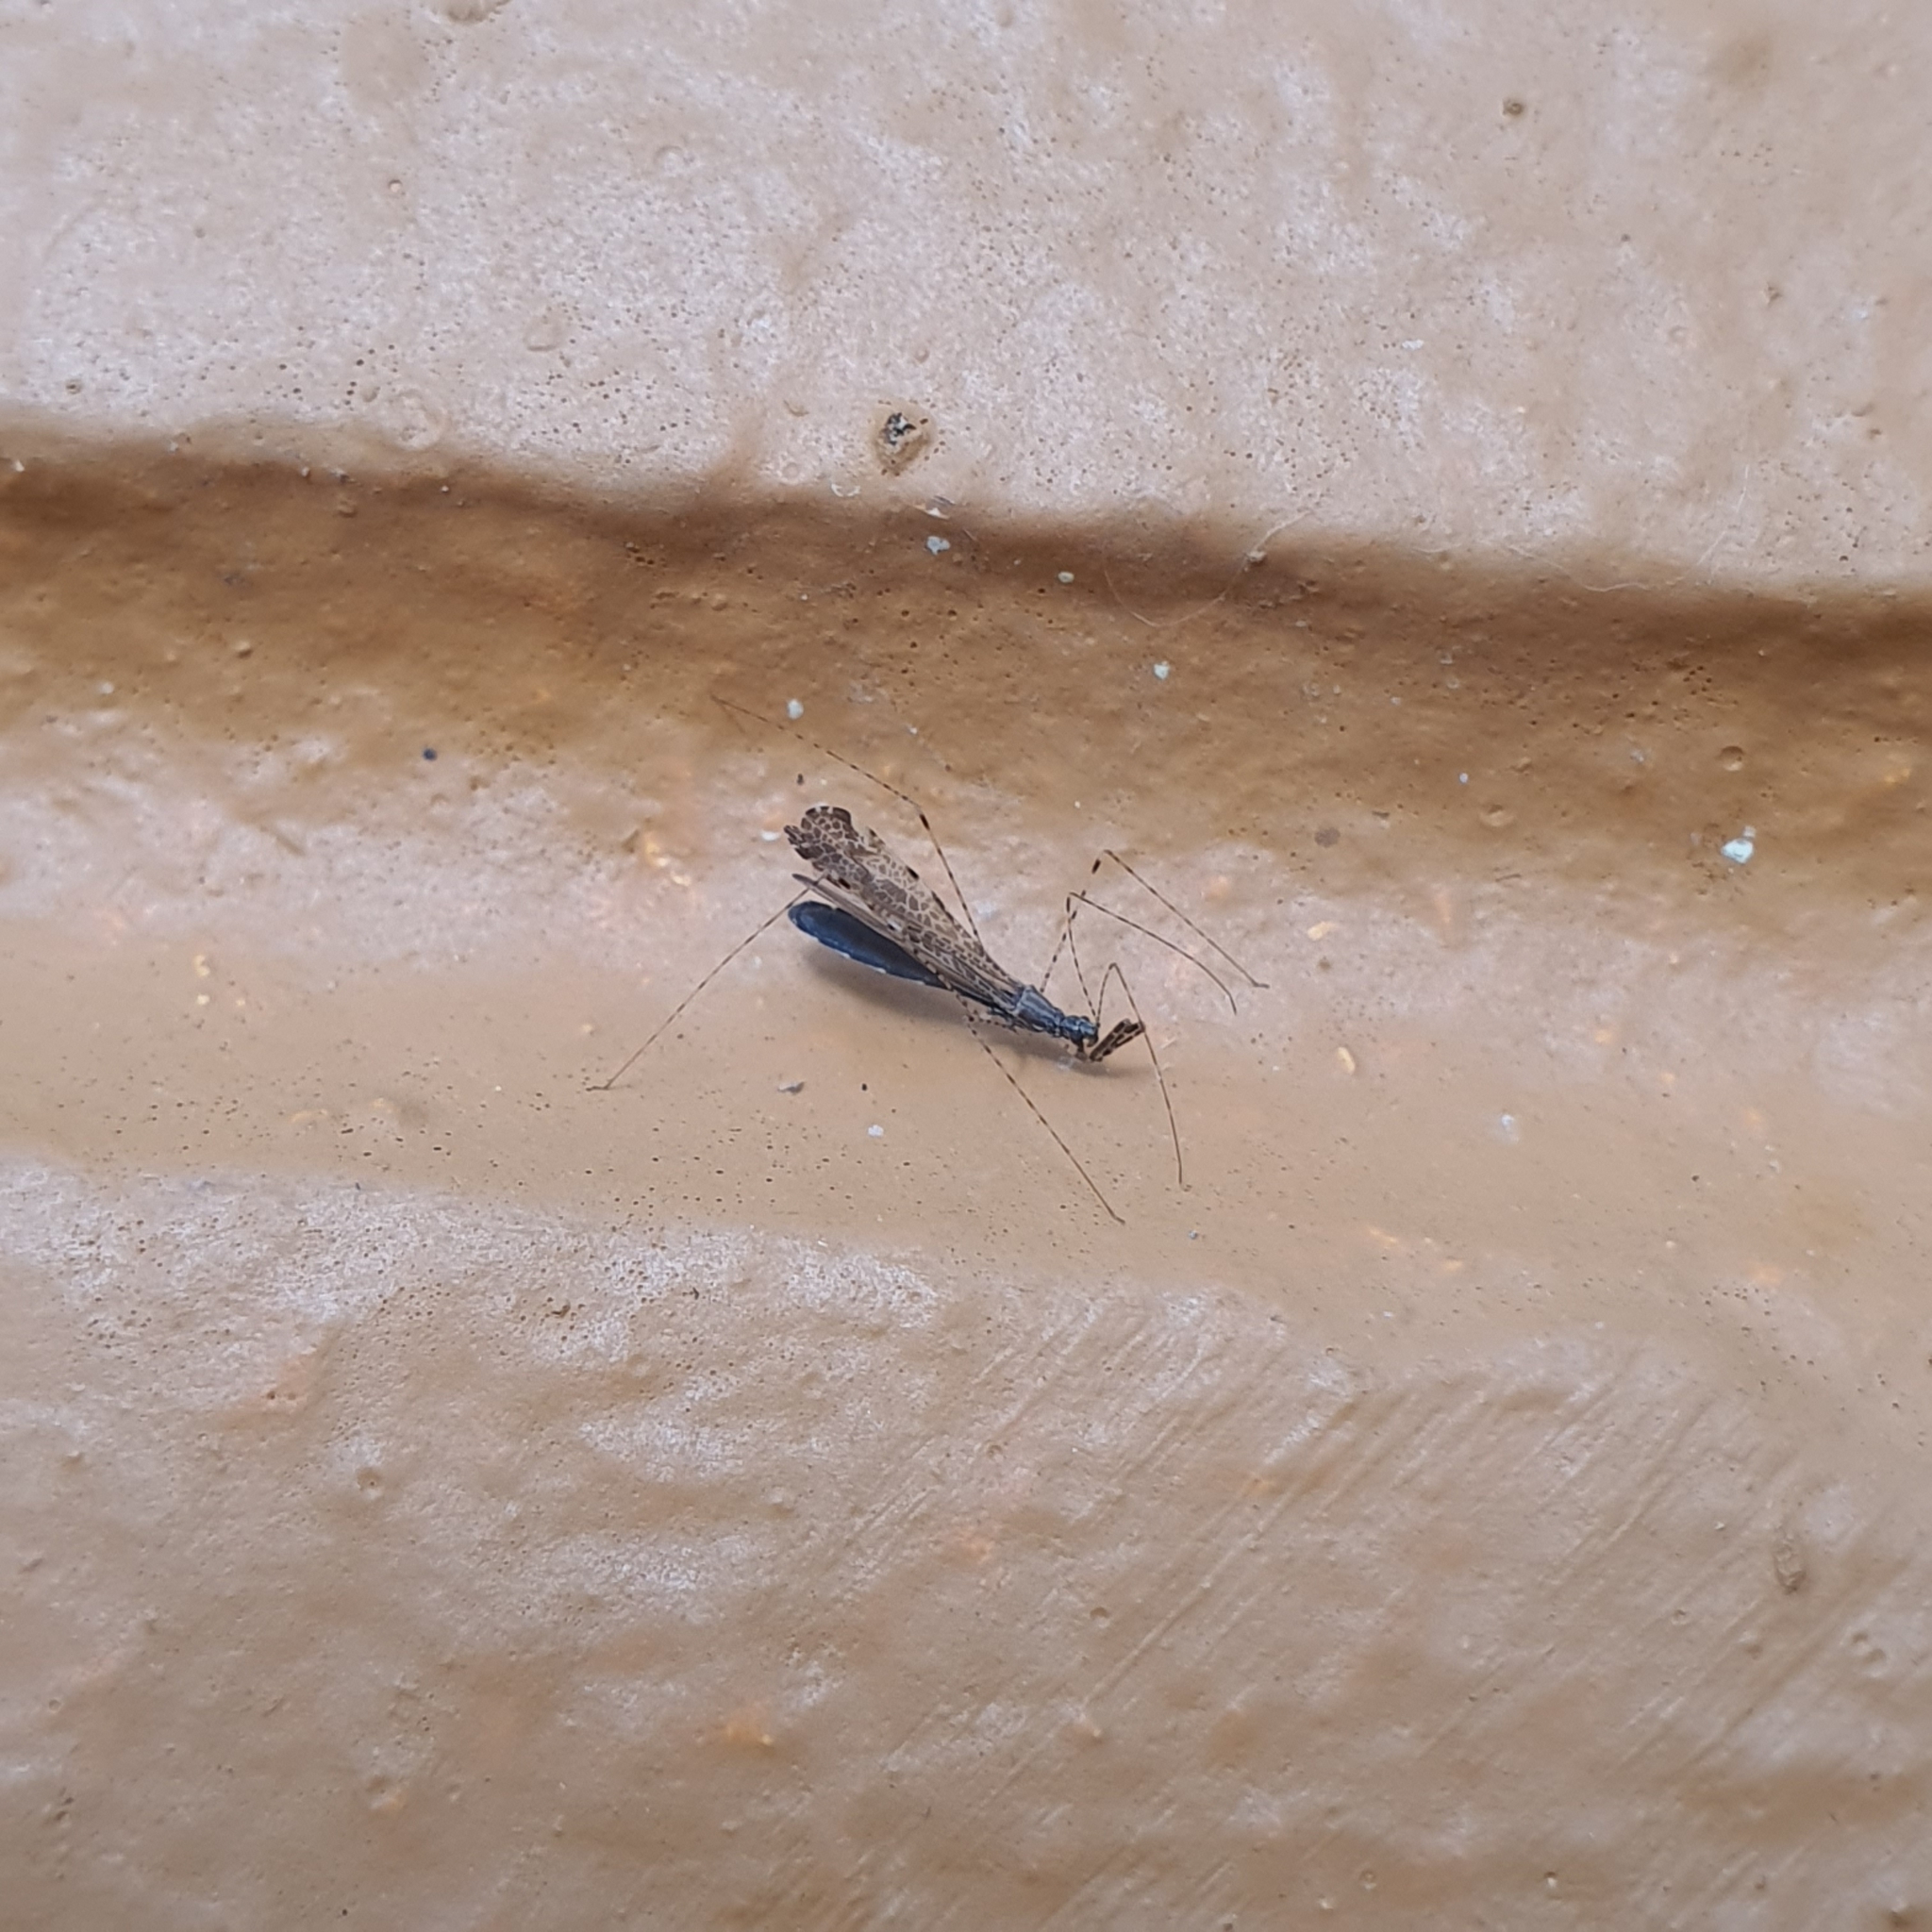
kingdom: Animalia
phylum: Arthropoda
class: Insecta
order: Hemiptera
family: Reduviidae
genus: Empicoris
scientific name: Empicoris rubromaculatus
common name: Thread-legged bug
